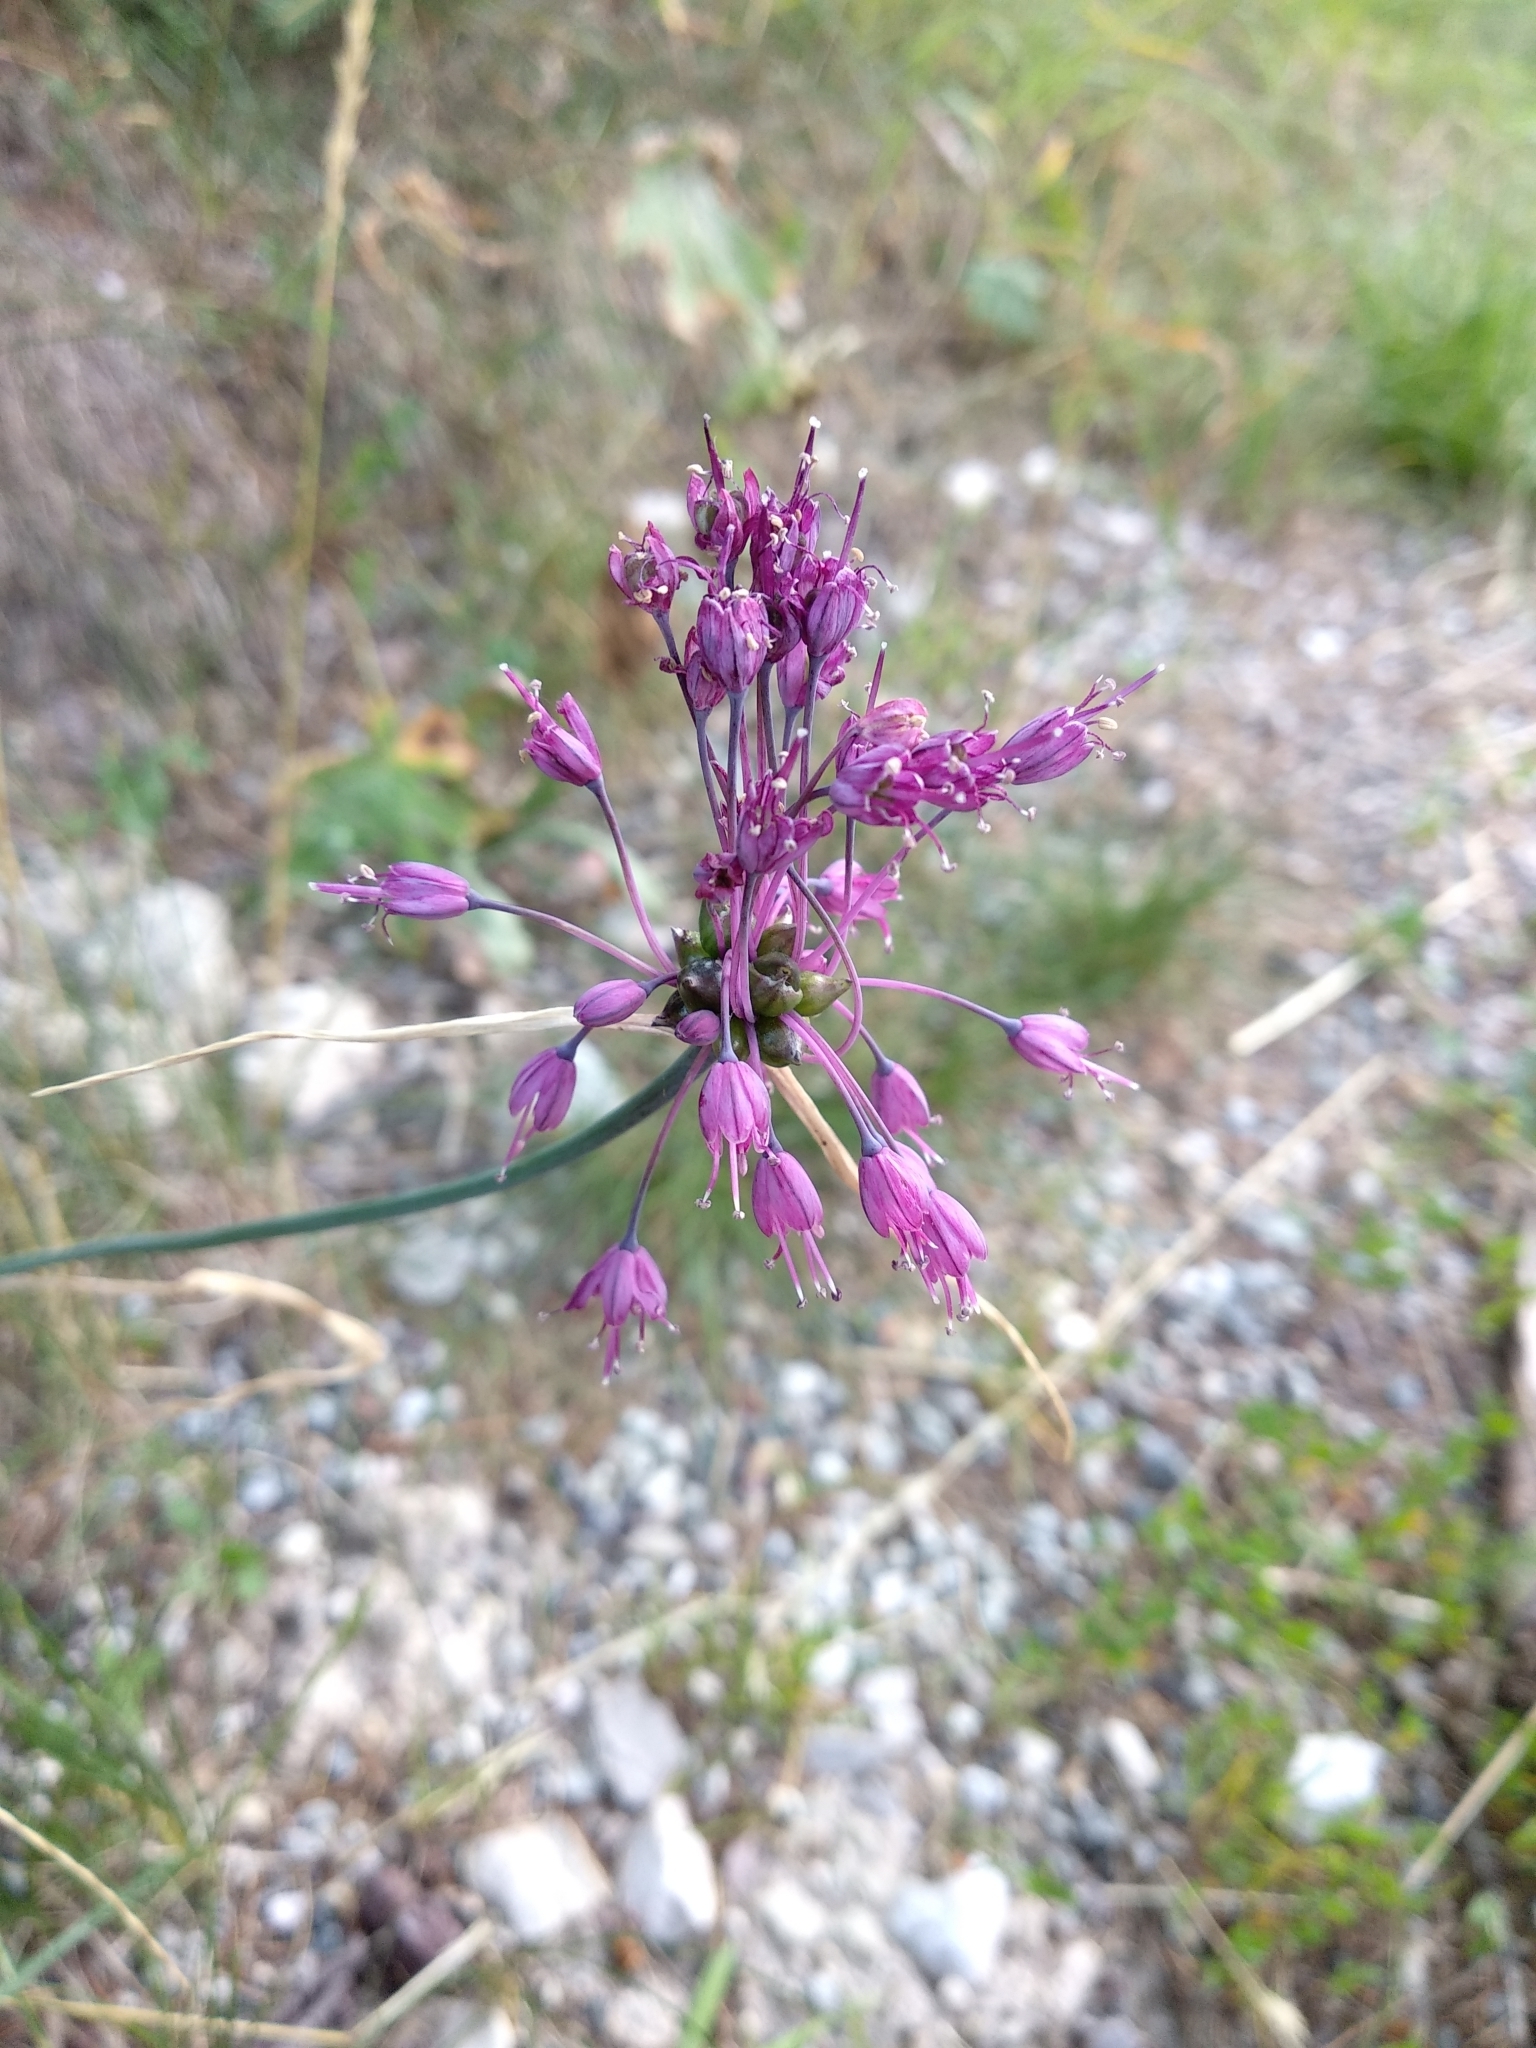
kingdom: Plantae
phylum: Tracheophyta
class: Liliopsida
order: Asparagales
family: Amaryllidaceae
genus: Allium
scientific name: Allium carinatum
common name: Keeled garlic
